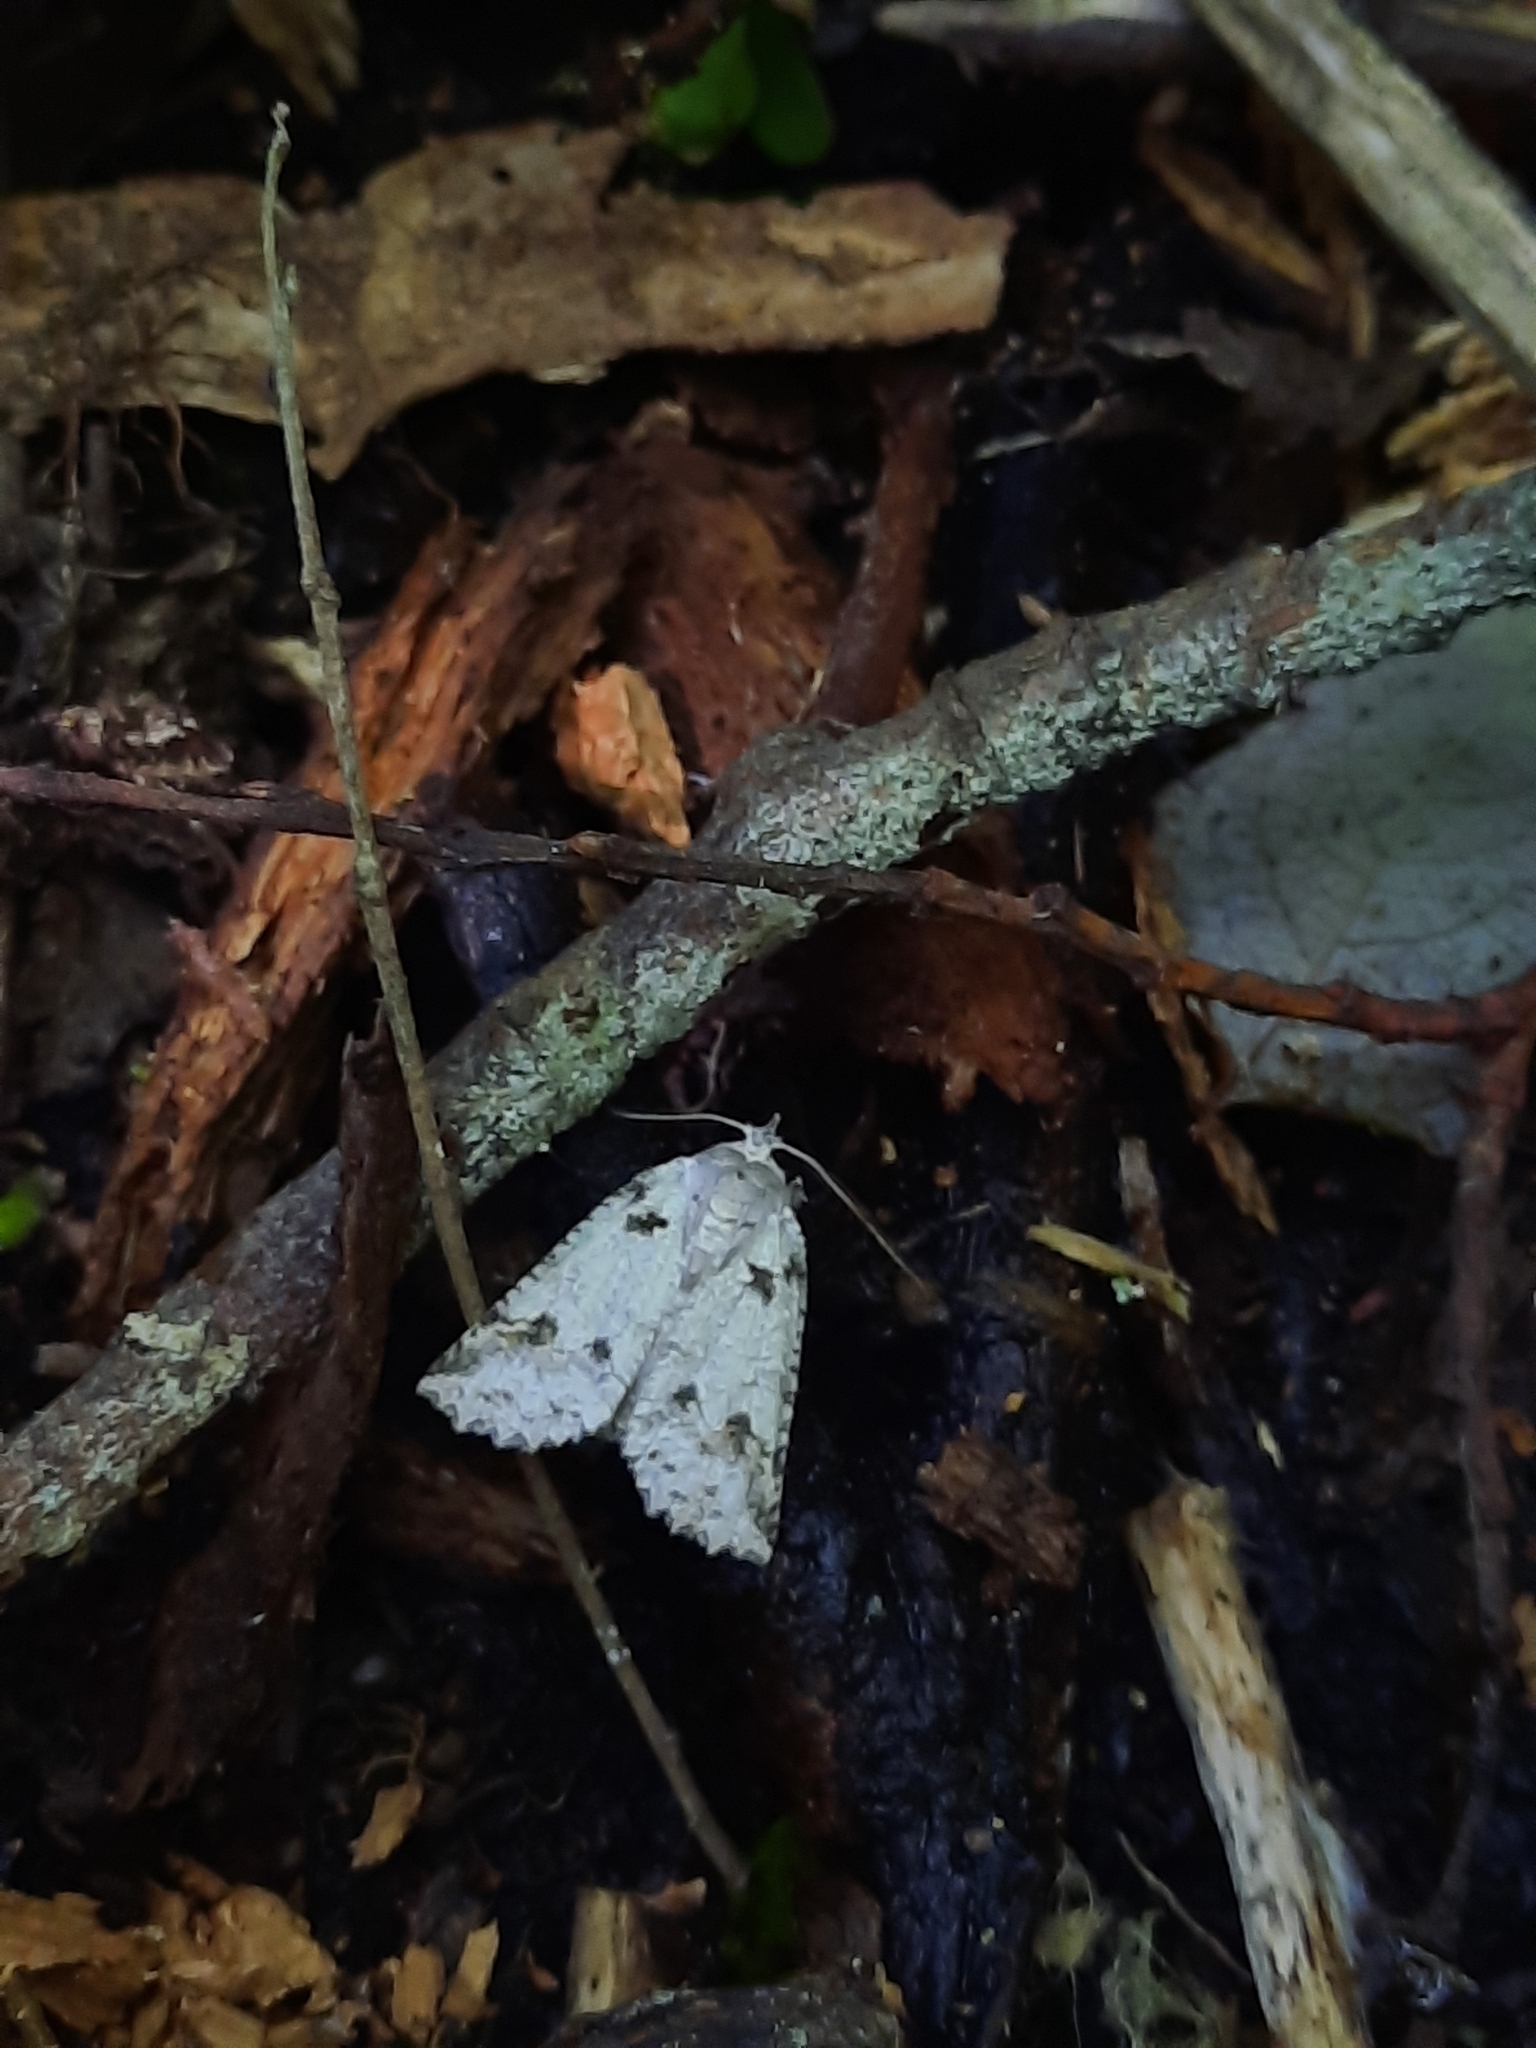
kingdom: Animalia
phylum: Arthropoda
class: Insecta
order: Lepidoptera
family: Geometridae
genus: Declana
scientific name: Declana floccosa
